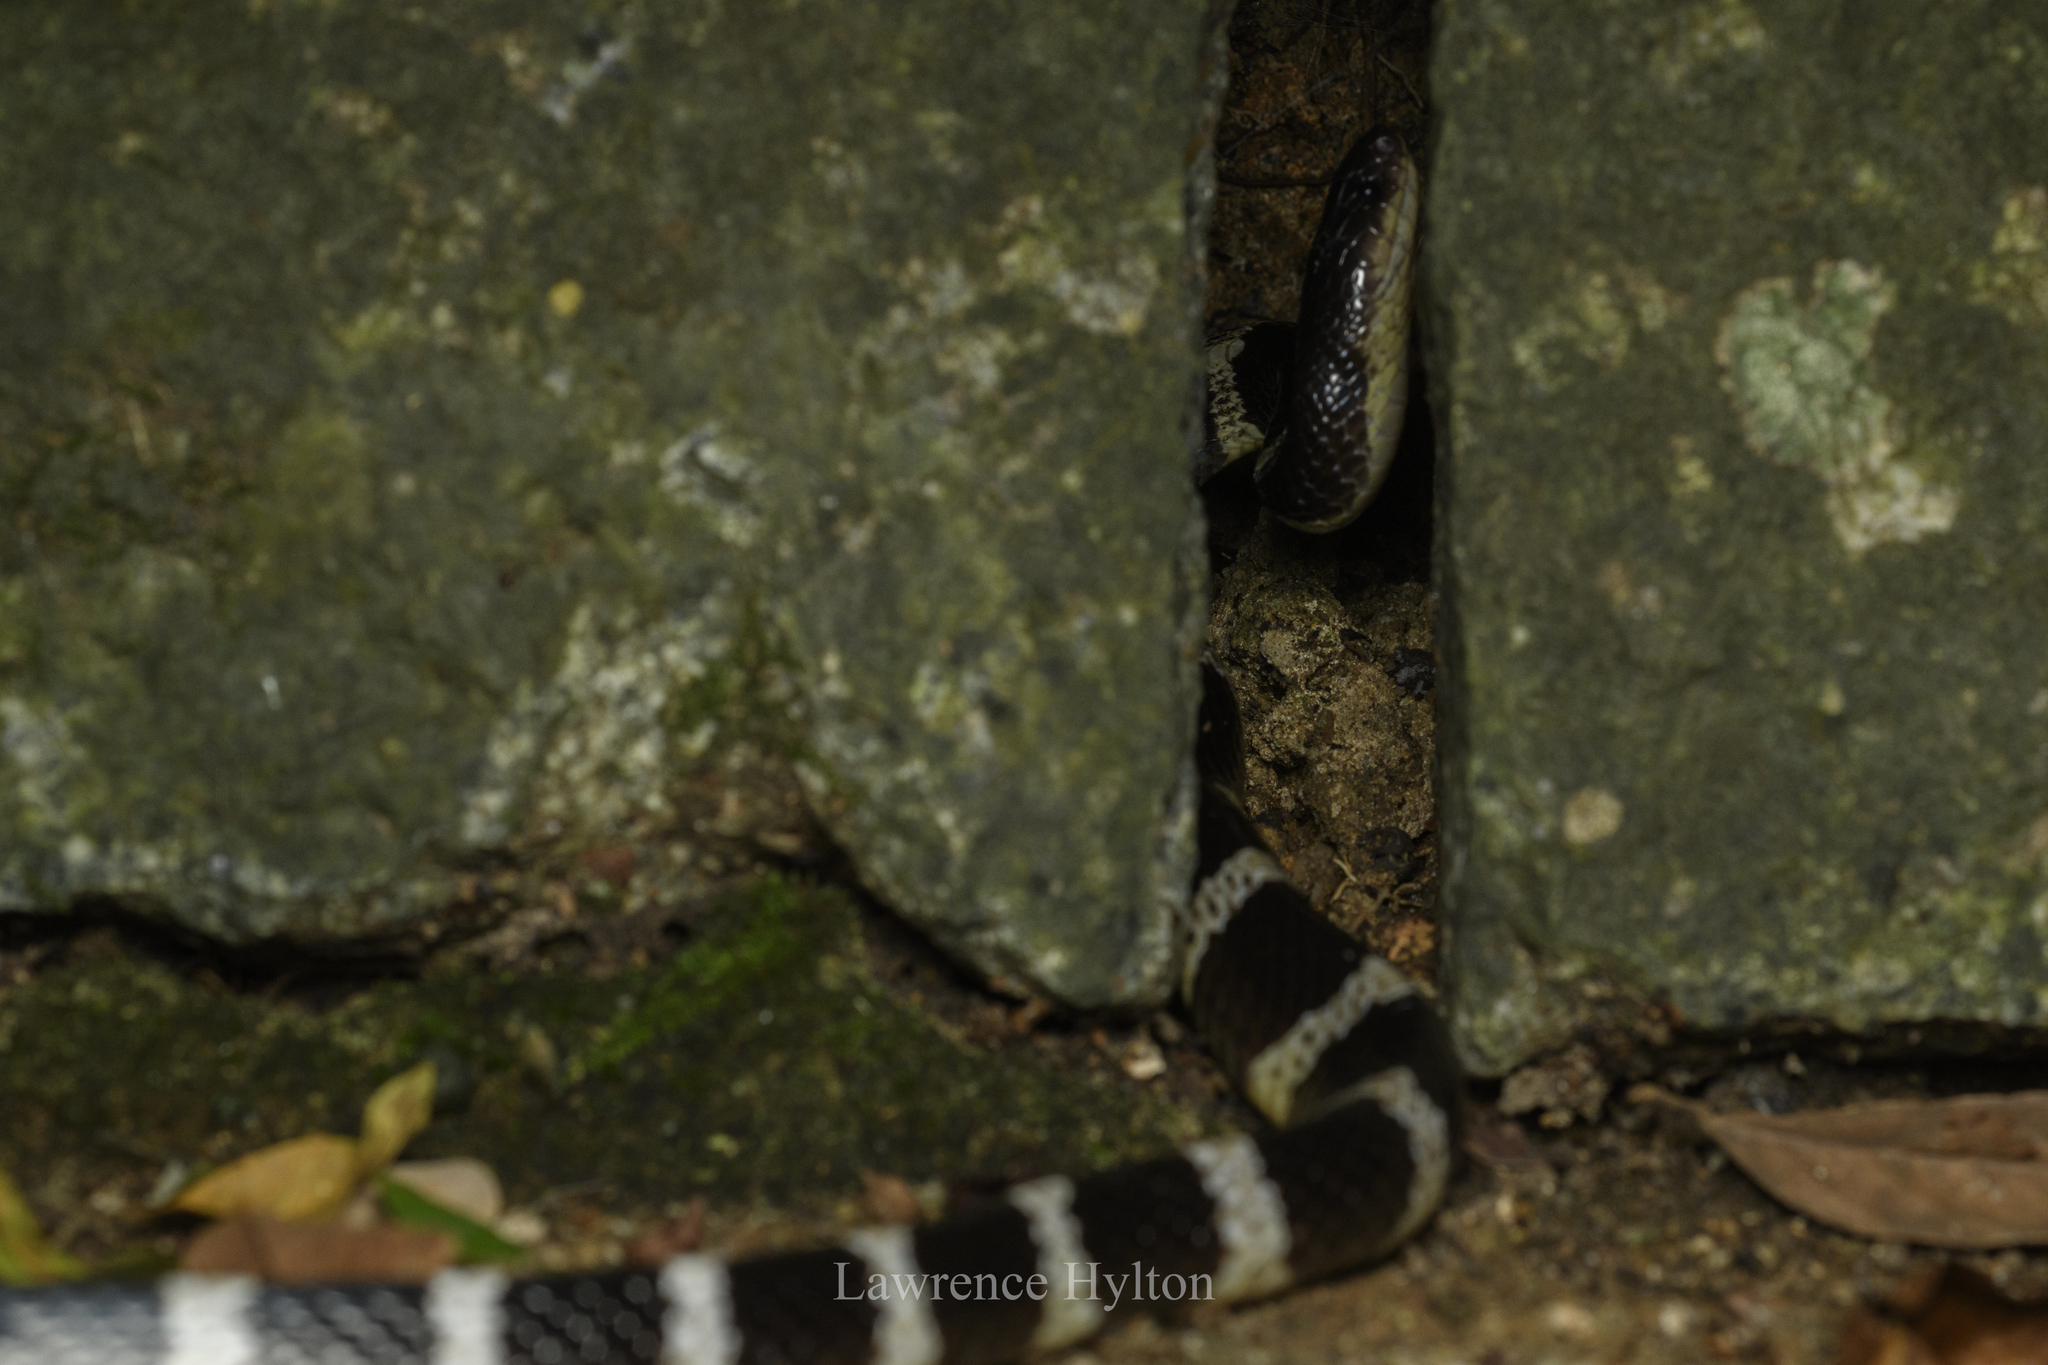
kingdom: Animalia
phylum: Chordata
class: Squamata
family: Elapidae
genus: Bungarus
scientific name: Bungarus multicinctus
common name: Many-banded krait
